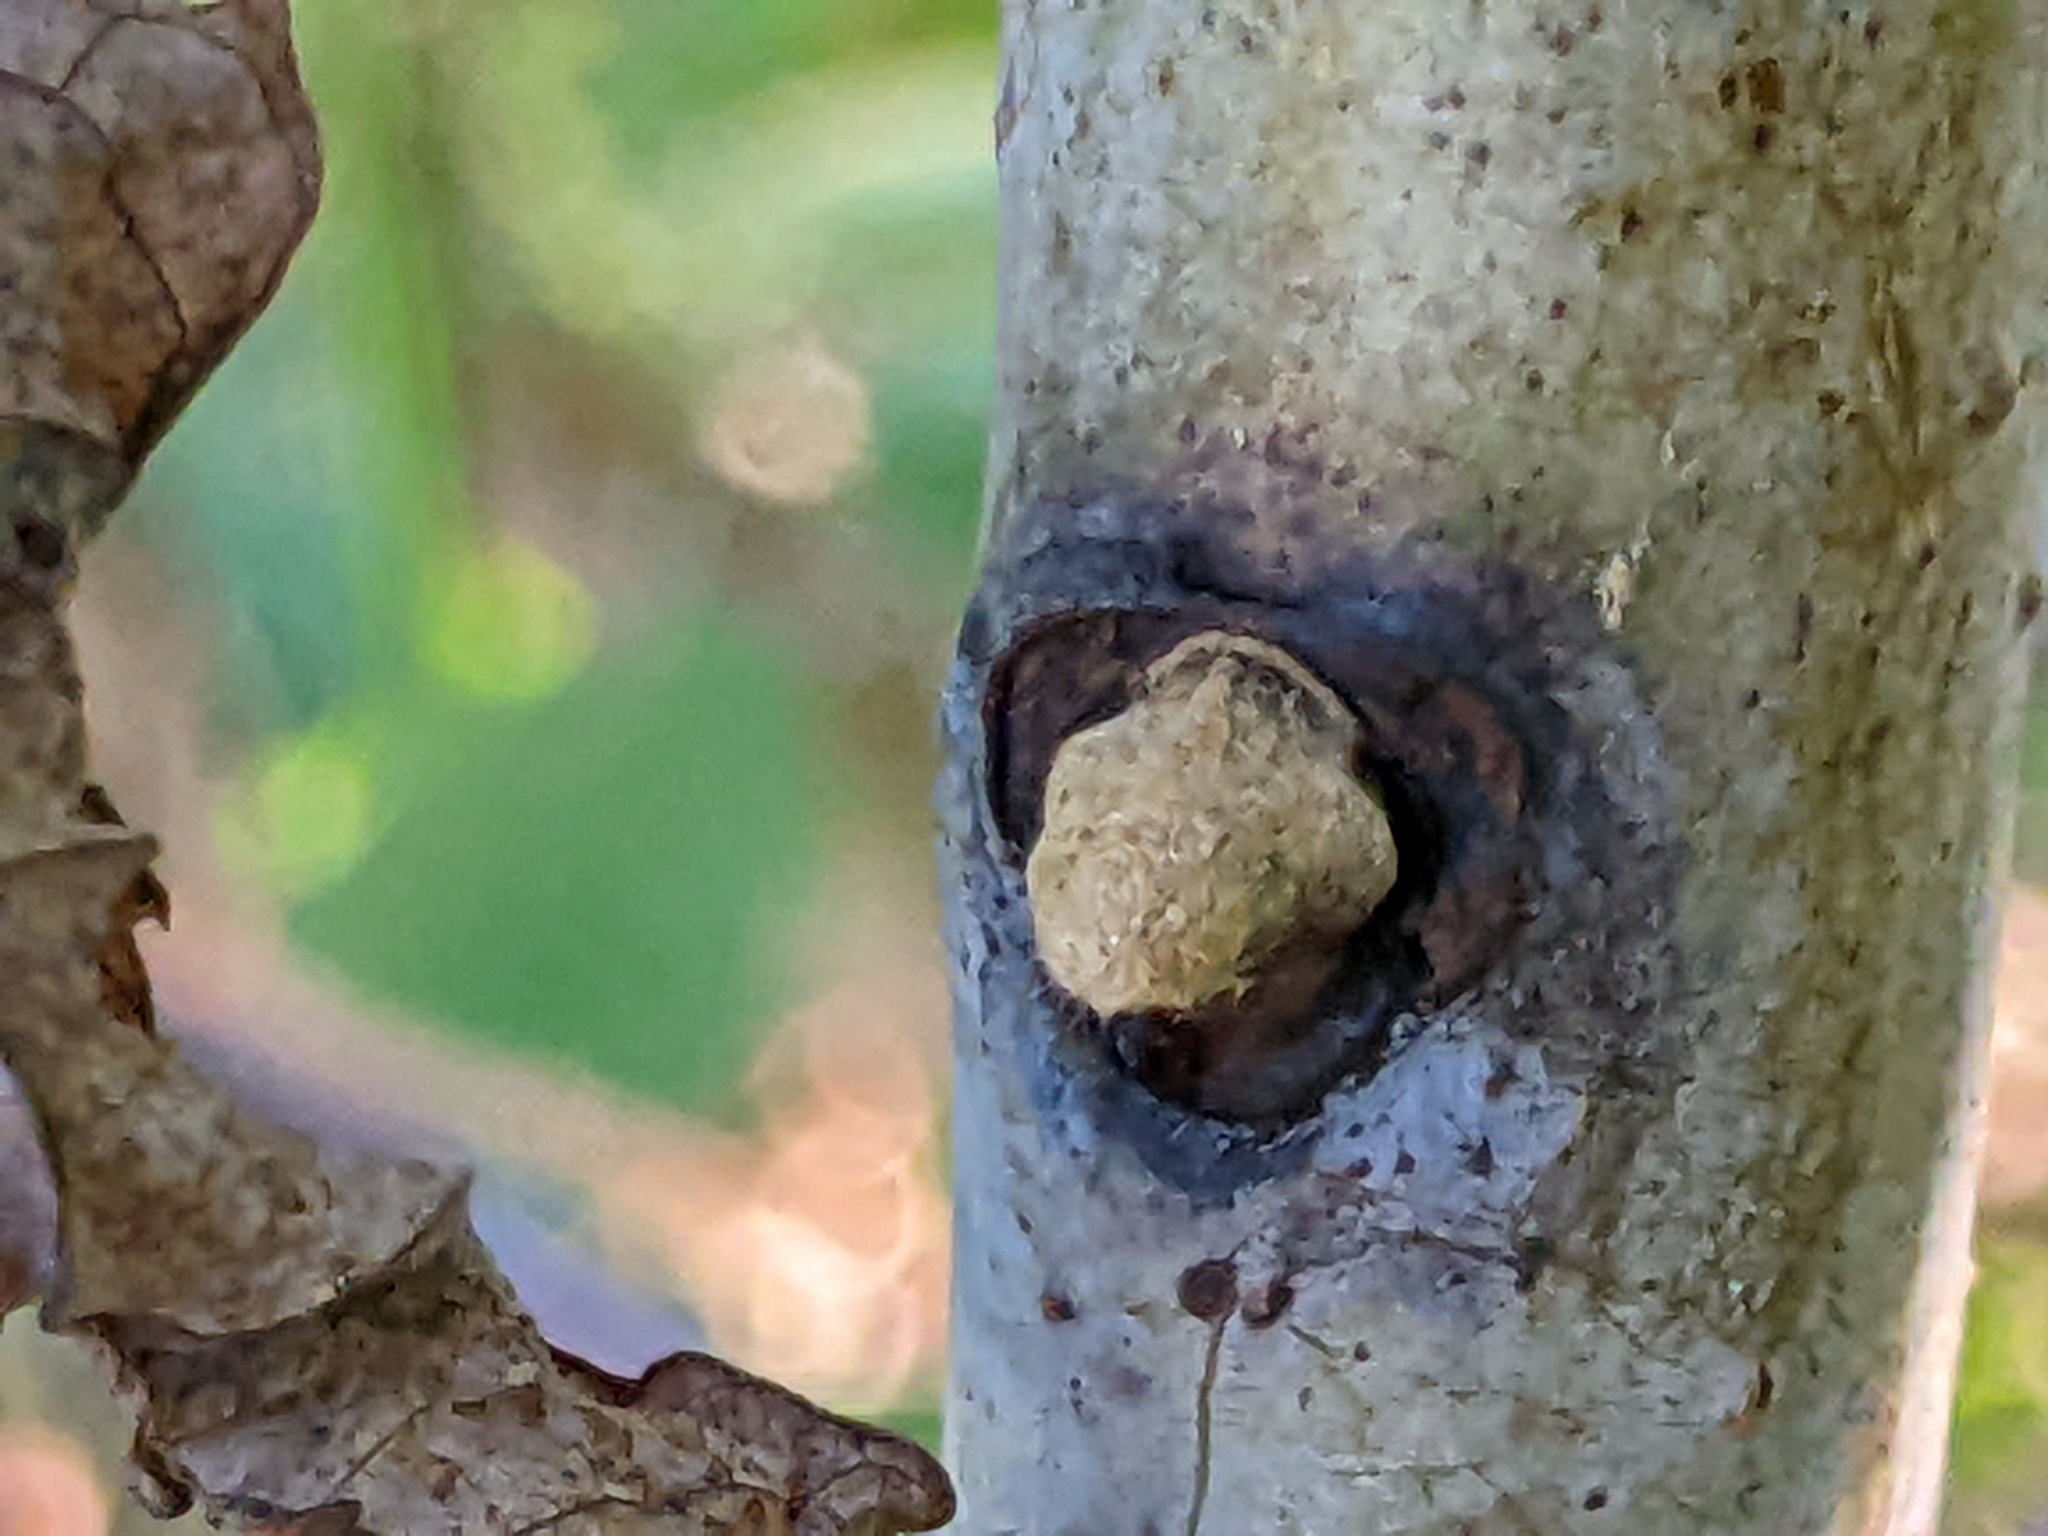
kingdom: Plantae
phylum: Tracheophyta
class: Magnoliopsida
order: Sapindales
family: Anacardiaceae
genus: Rhus
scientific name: Rhus glabra
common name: Scarlet sumac
